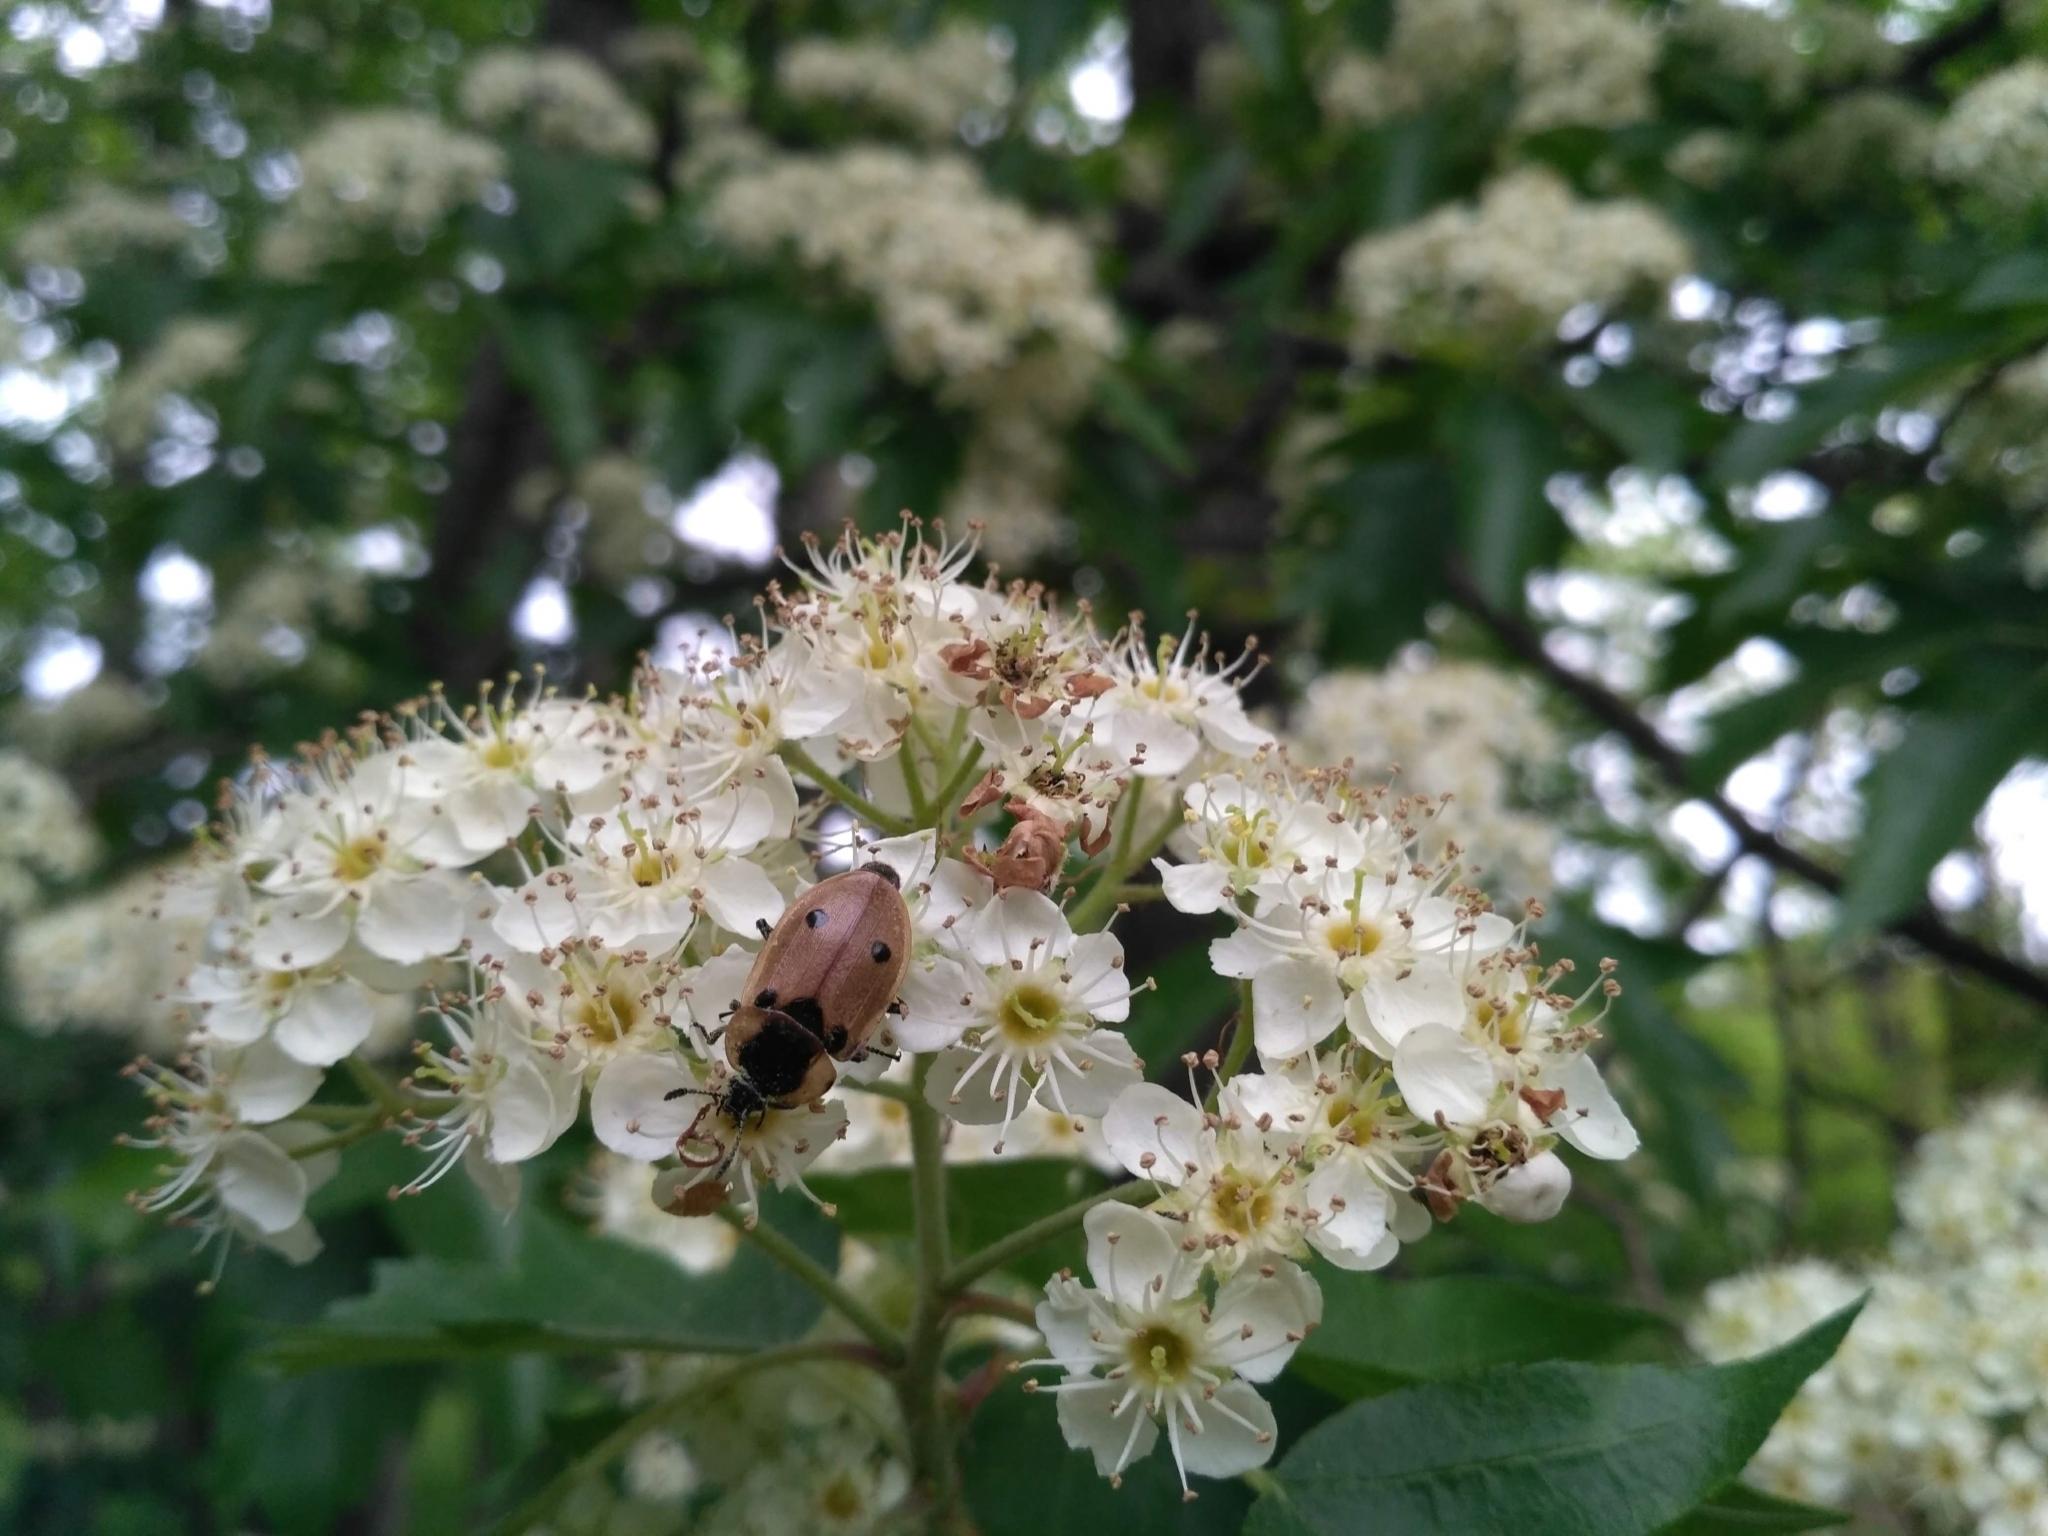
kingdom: Animalia
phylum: Arthropoda
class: Insecta
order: Coleoptera
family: Staphylinidae
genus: Dendroxena
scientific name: Dendroxena quadrimaculata
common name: Carrion beetle
